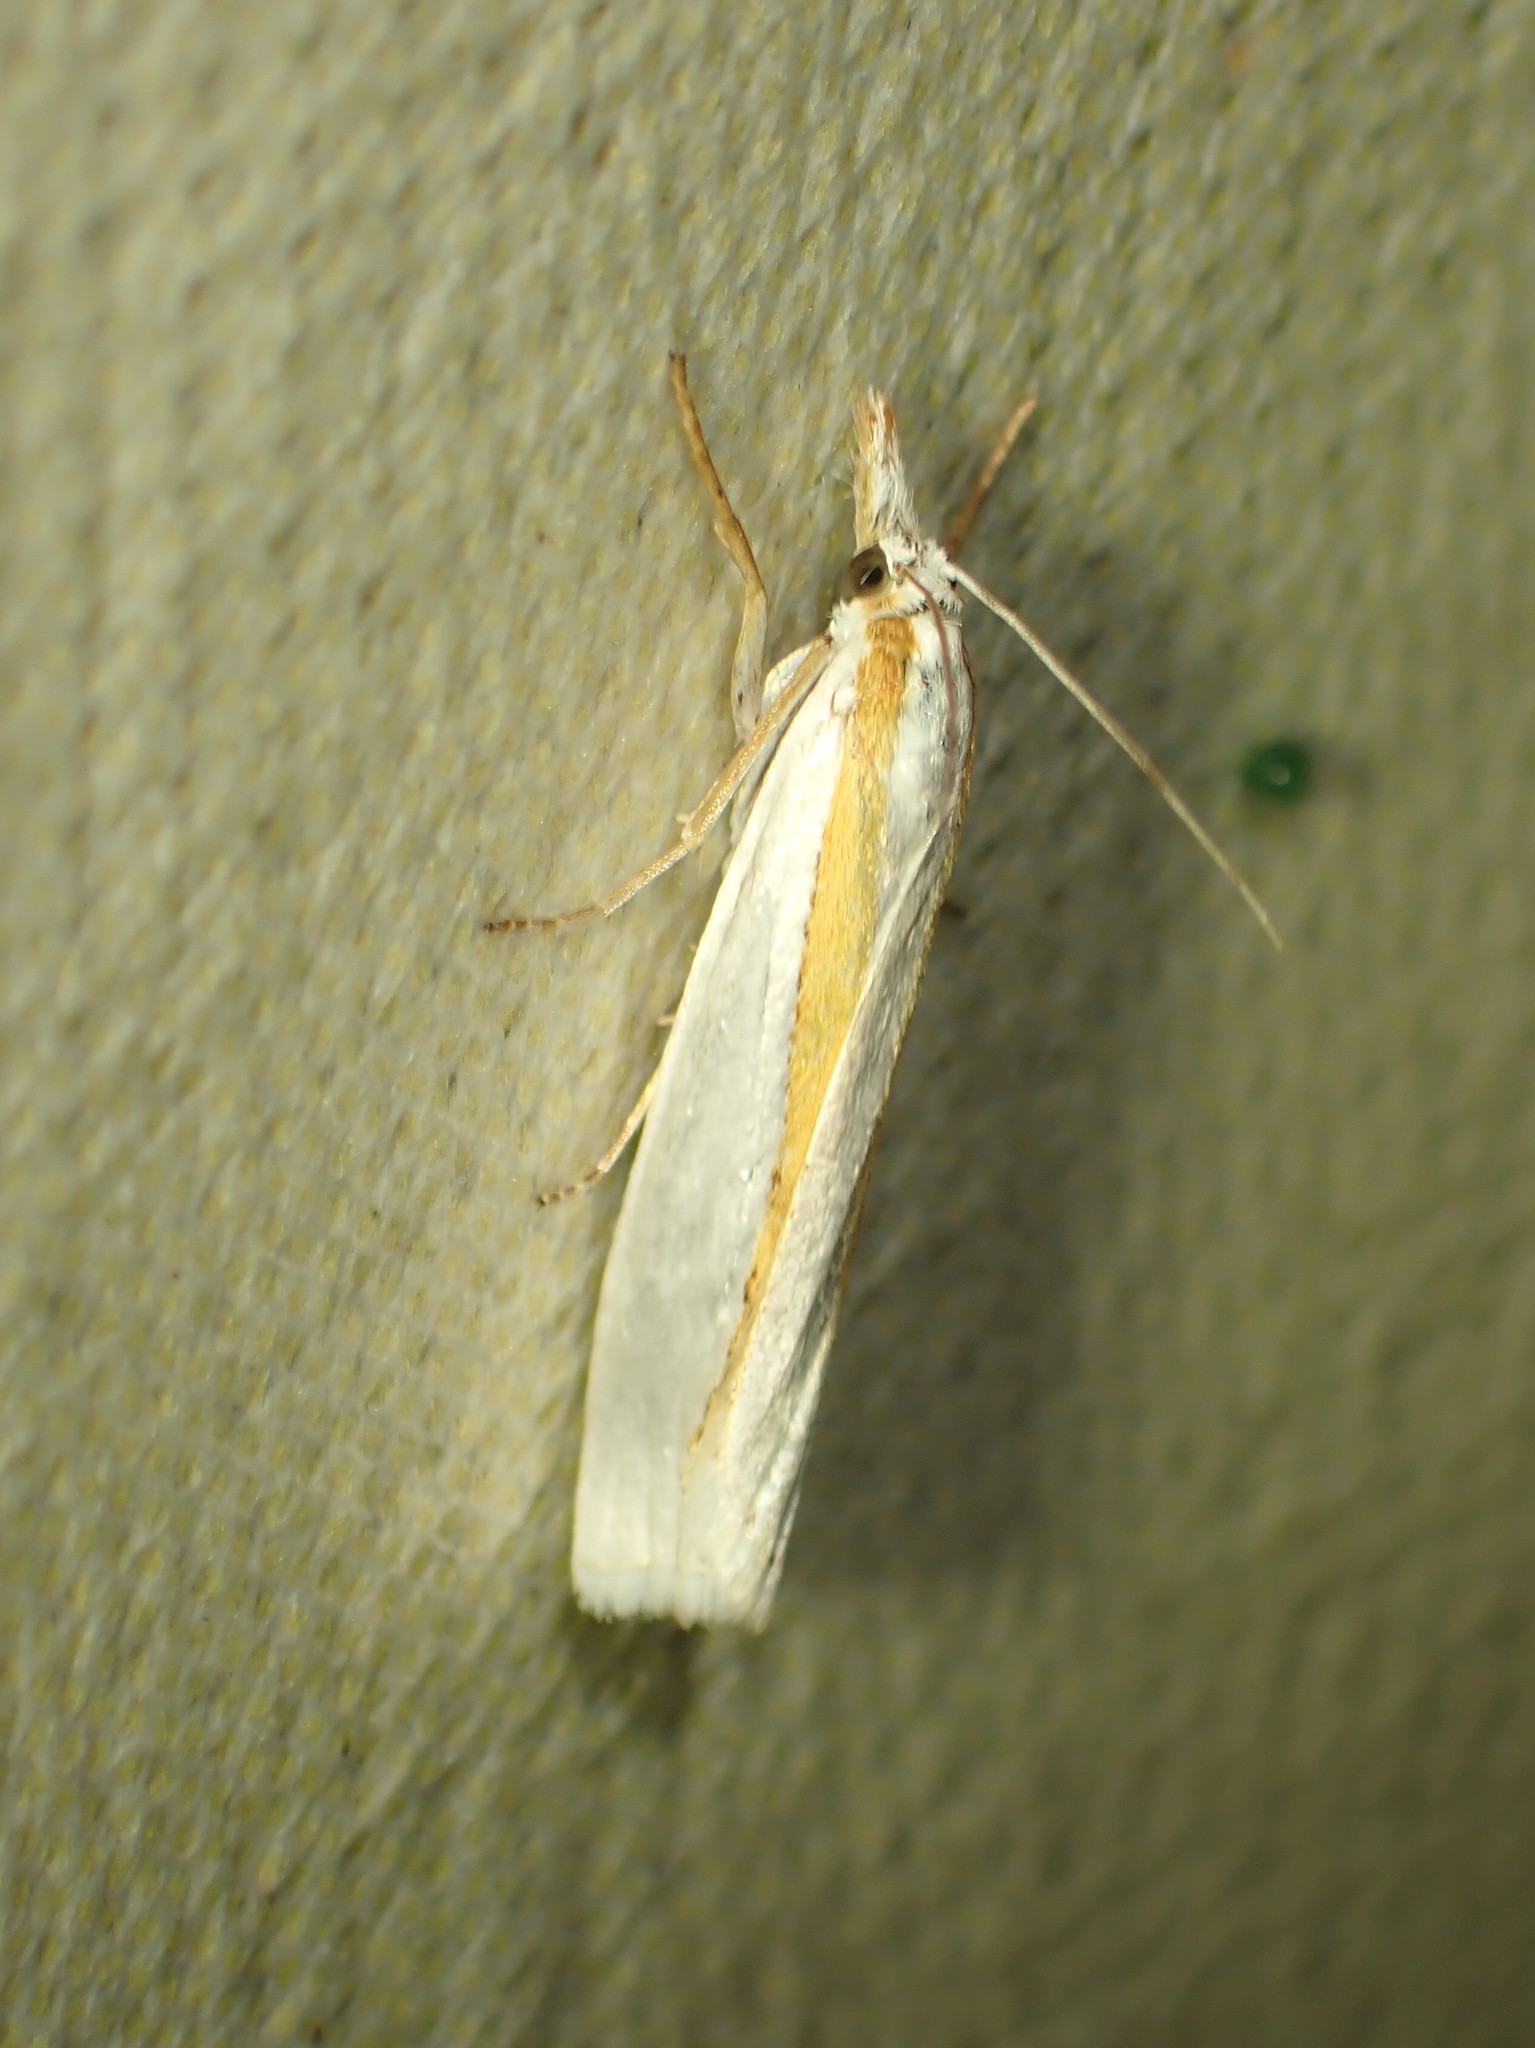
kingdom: Animalia
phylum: Arthropoda
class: Insecta
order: Lepidoptera
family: Crambidae
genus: Crambus
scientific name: Crambus girardellus
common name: Girard's grass-veneer
